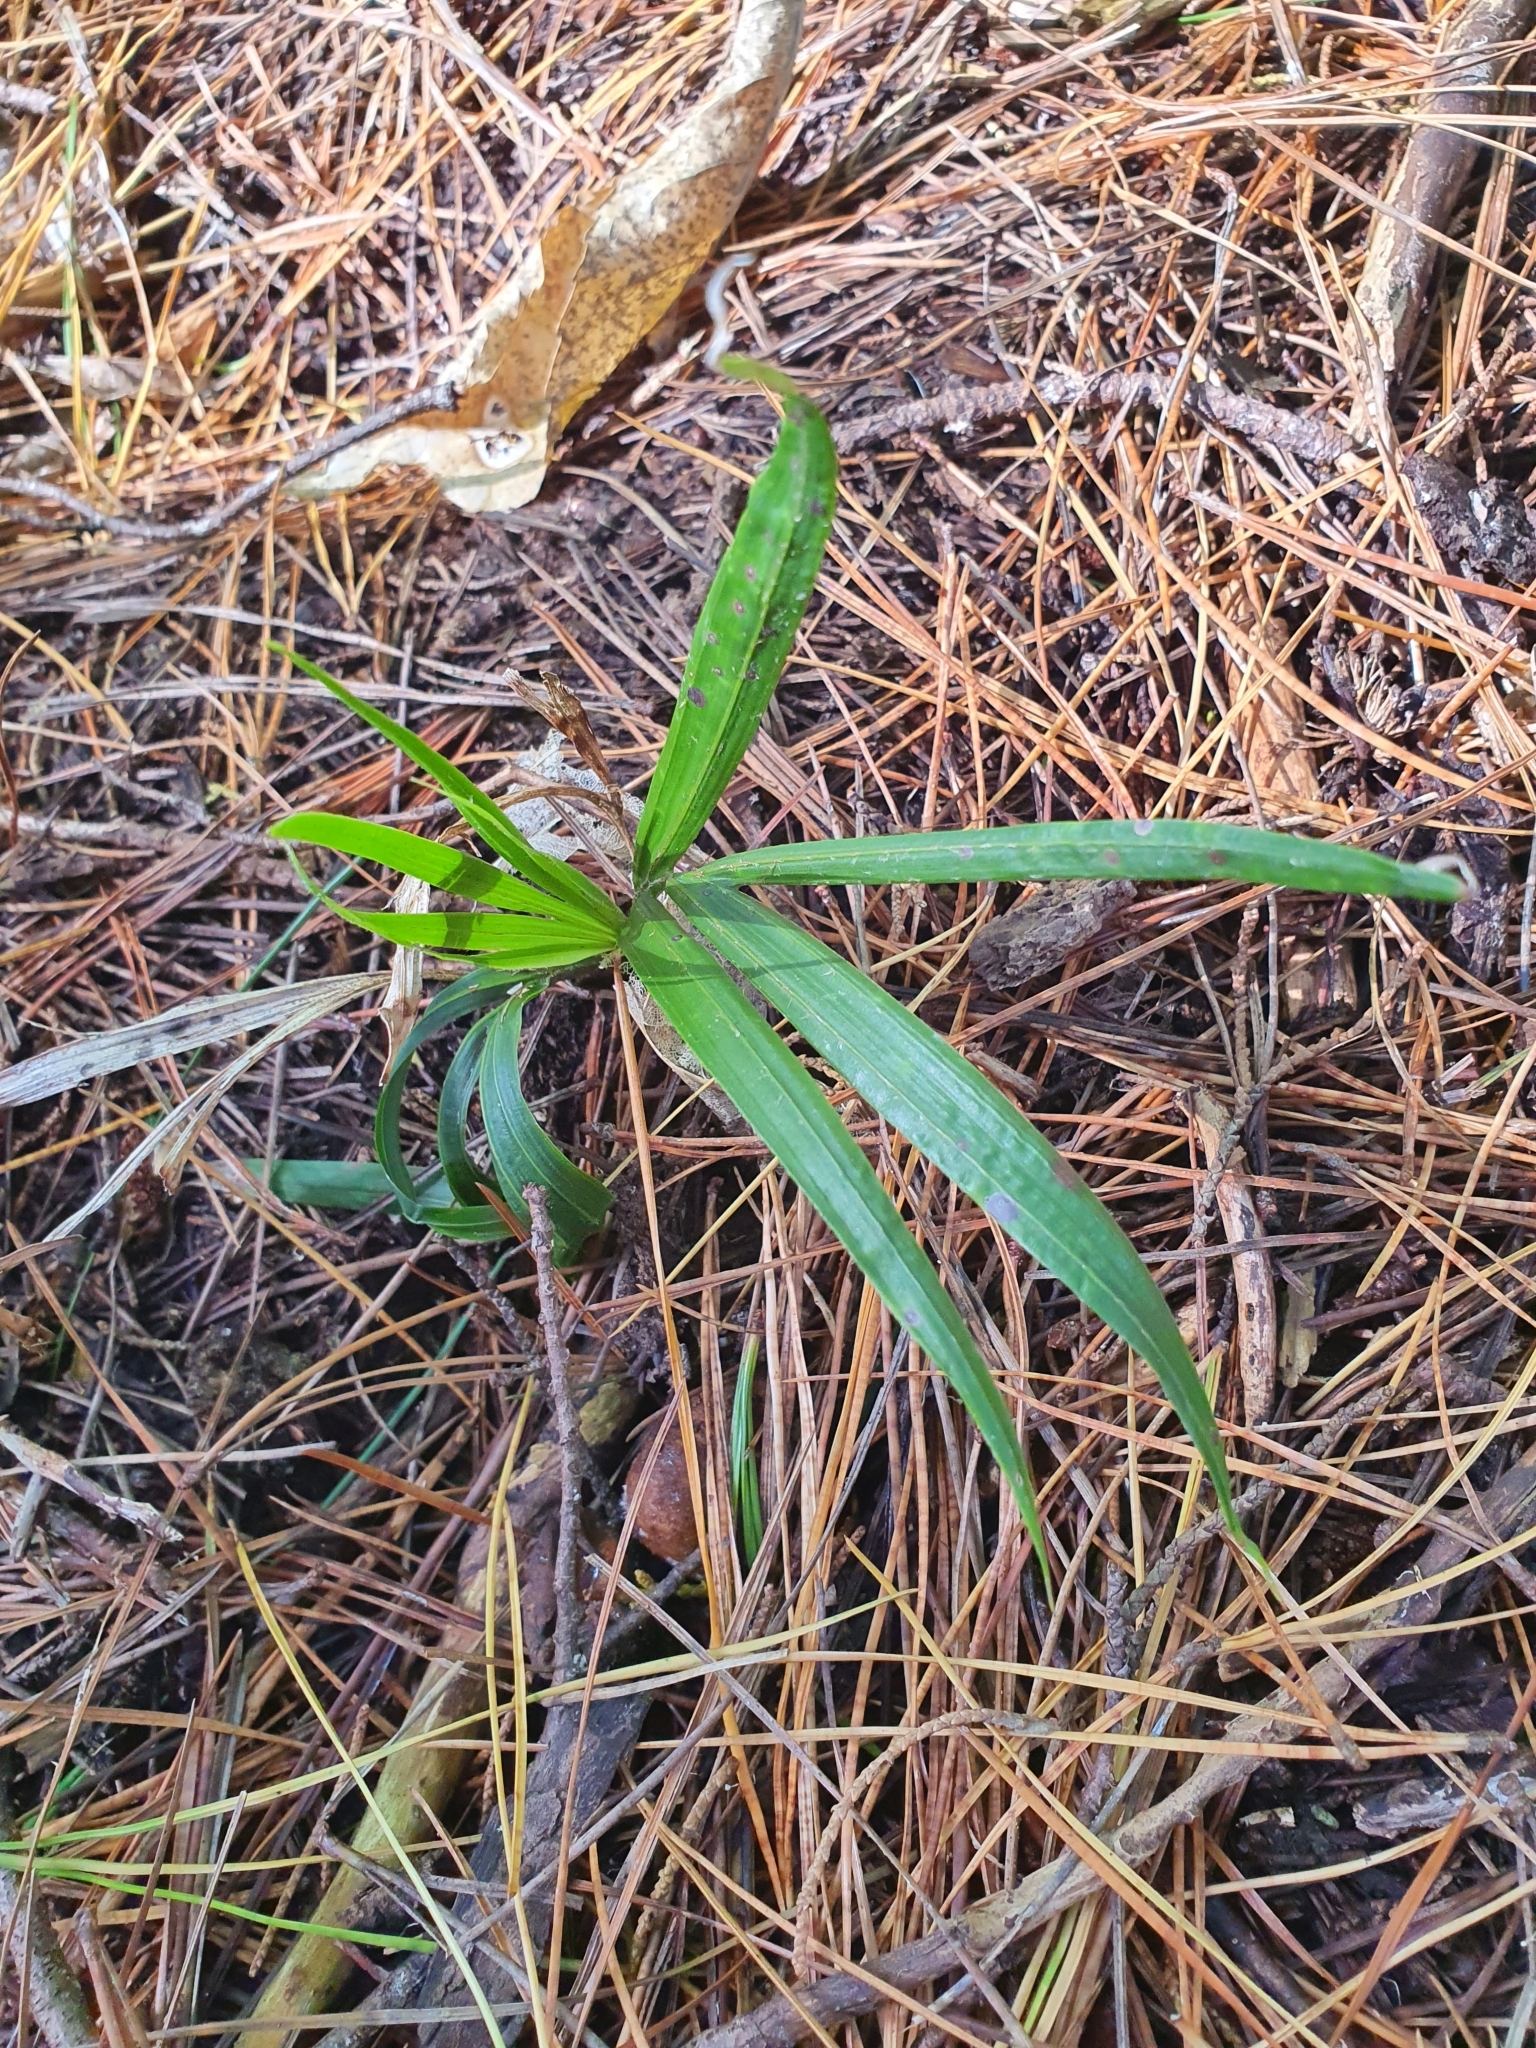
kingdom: Plantae
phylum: Tracheophyta
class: Liliopsida
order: Arecales
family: Arecaceae
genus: Rhopalostylis
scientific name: Rhopalostylis sapida
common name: Feather-duster palm
